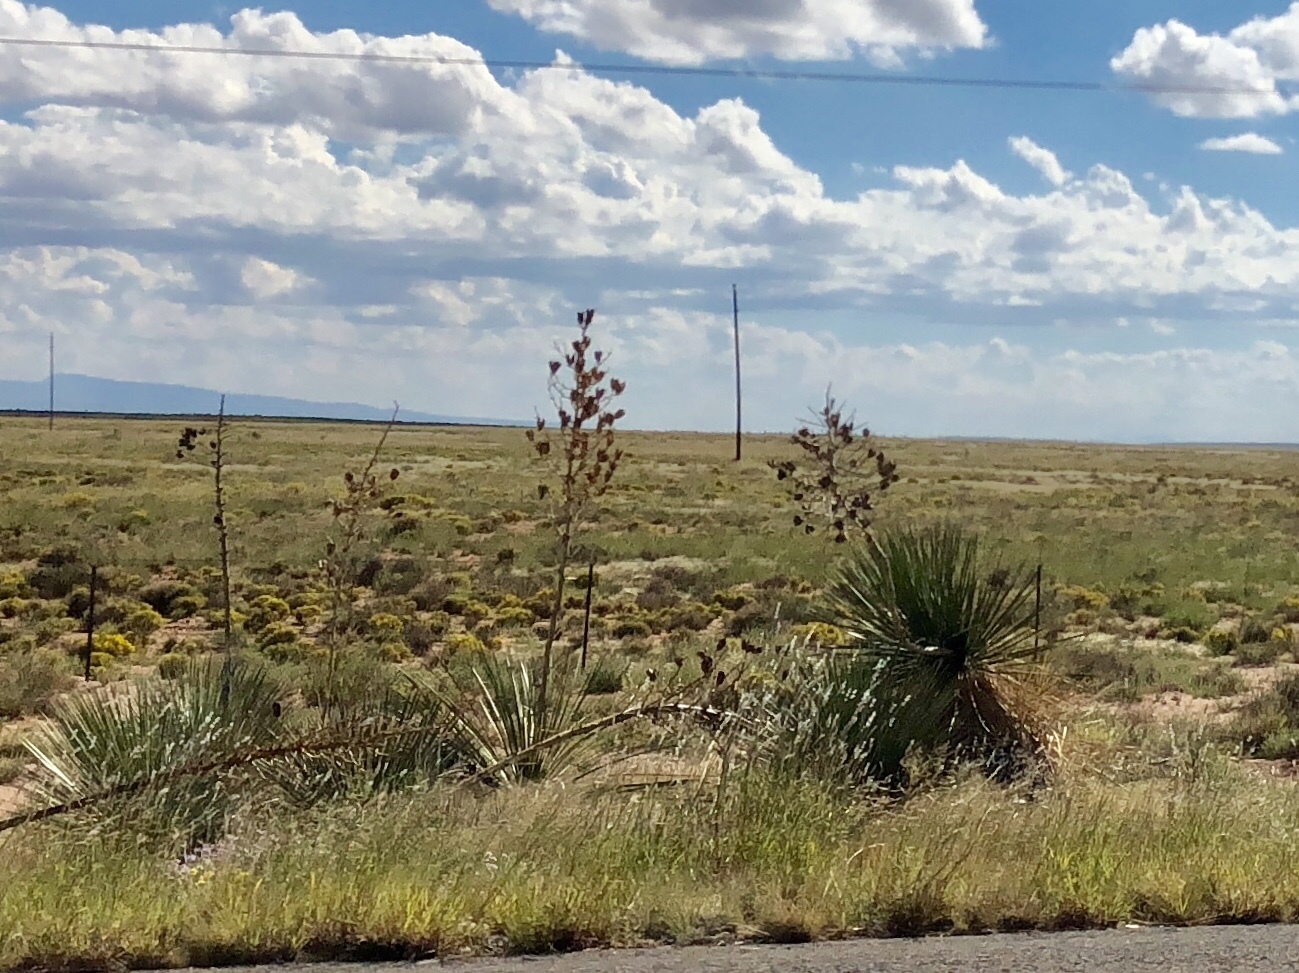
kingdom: Plantae
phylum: Tracheophyta
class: Liliopsida
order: Asparagales
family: Asparagaceae
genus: Yucca
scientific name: Yucca elata
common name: Palmella
